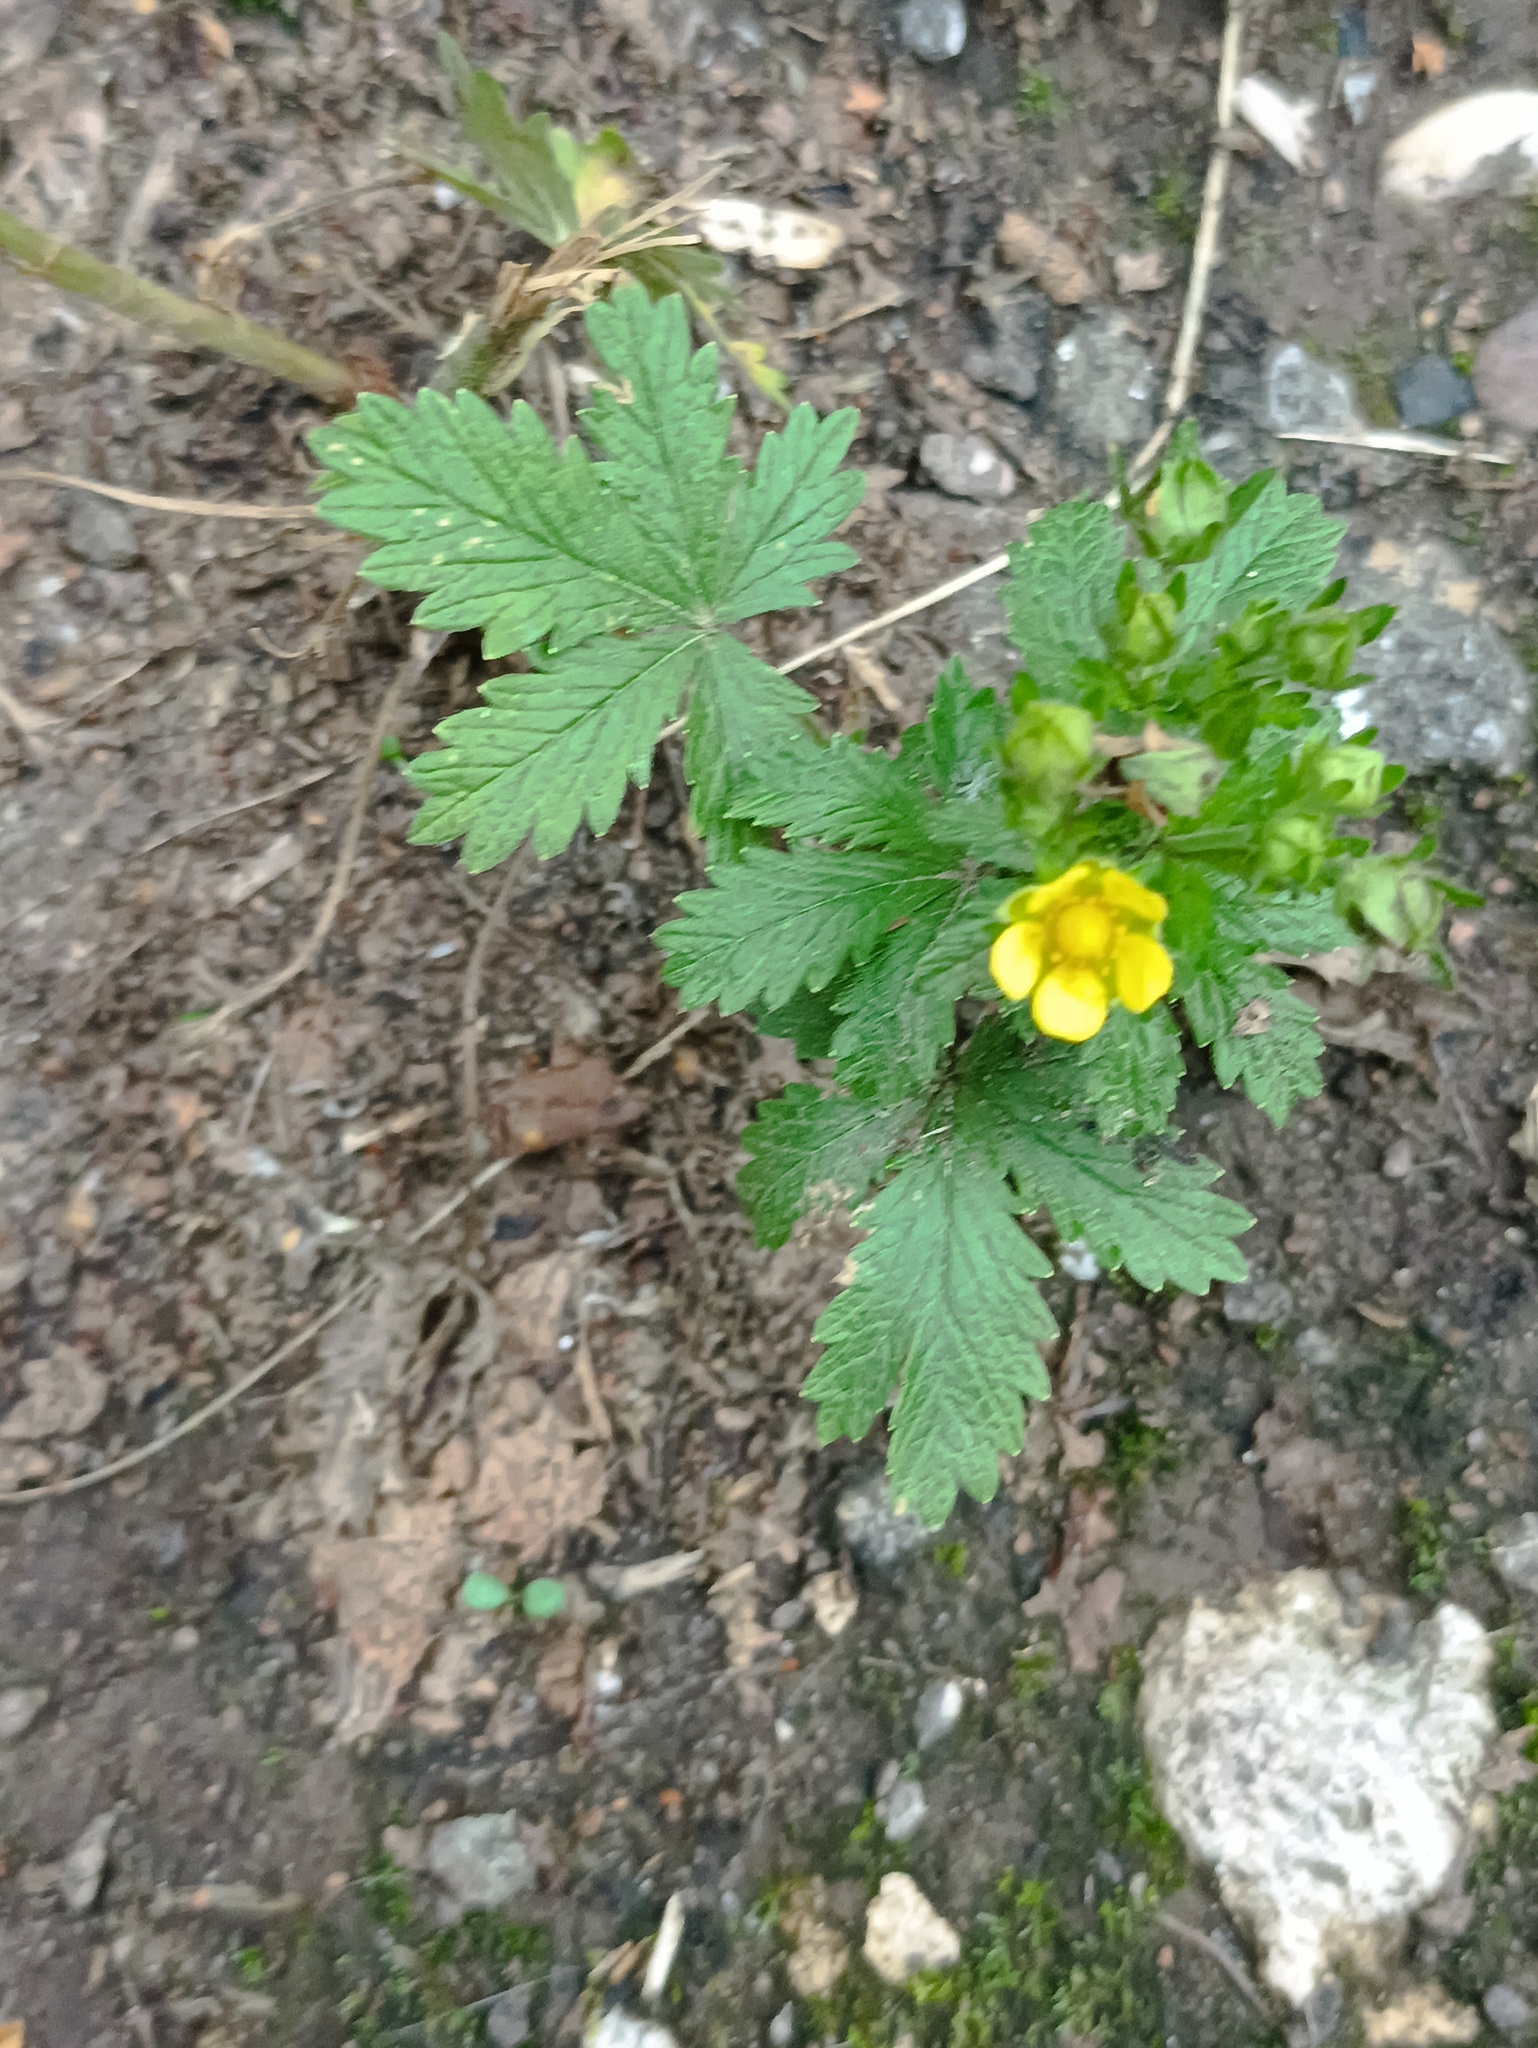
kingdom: Plantae
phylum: Tracheophyta
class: Magnoliopsida
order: Rosales
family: Rosaceae
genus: Potentilla
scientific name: Potentilla norvegica
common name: Ternate-leaved cinquefoil
